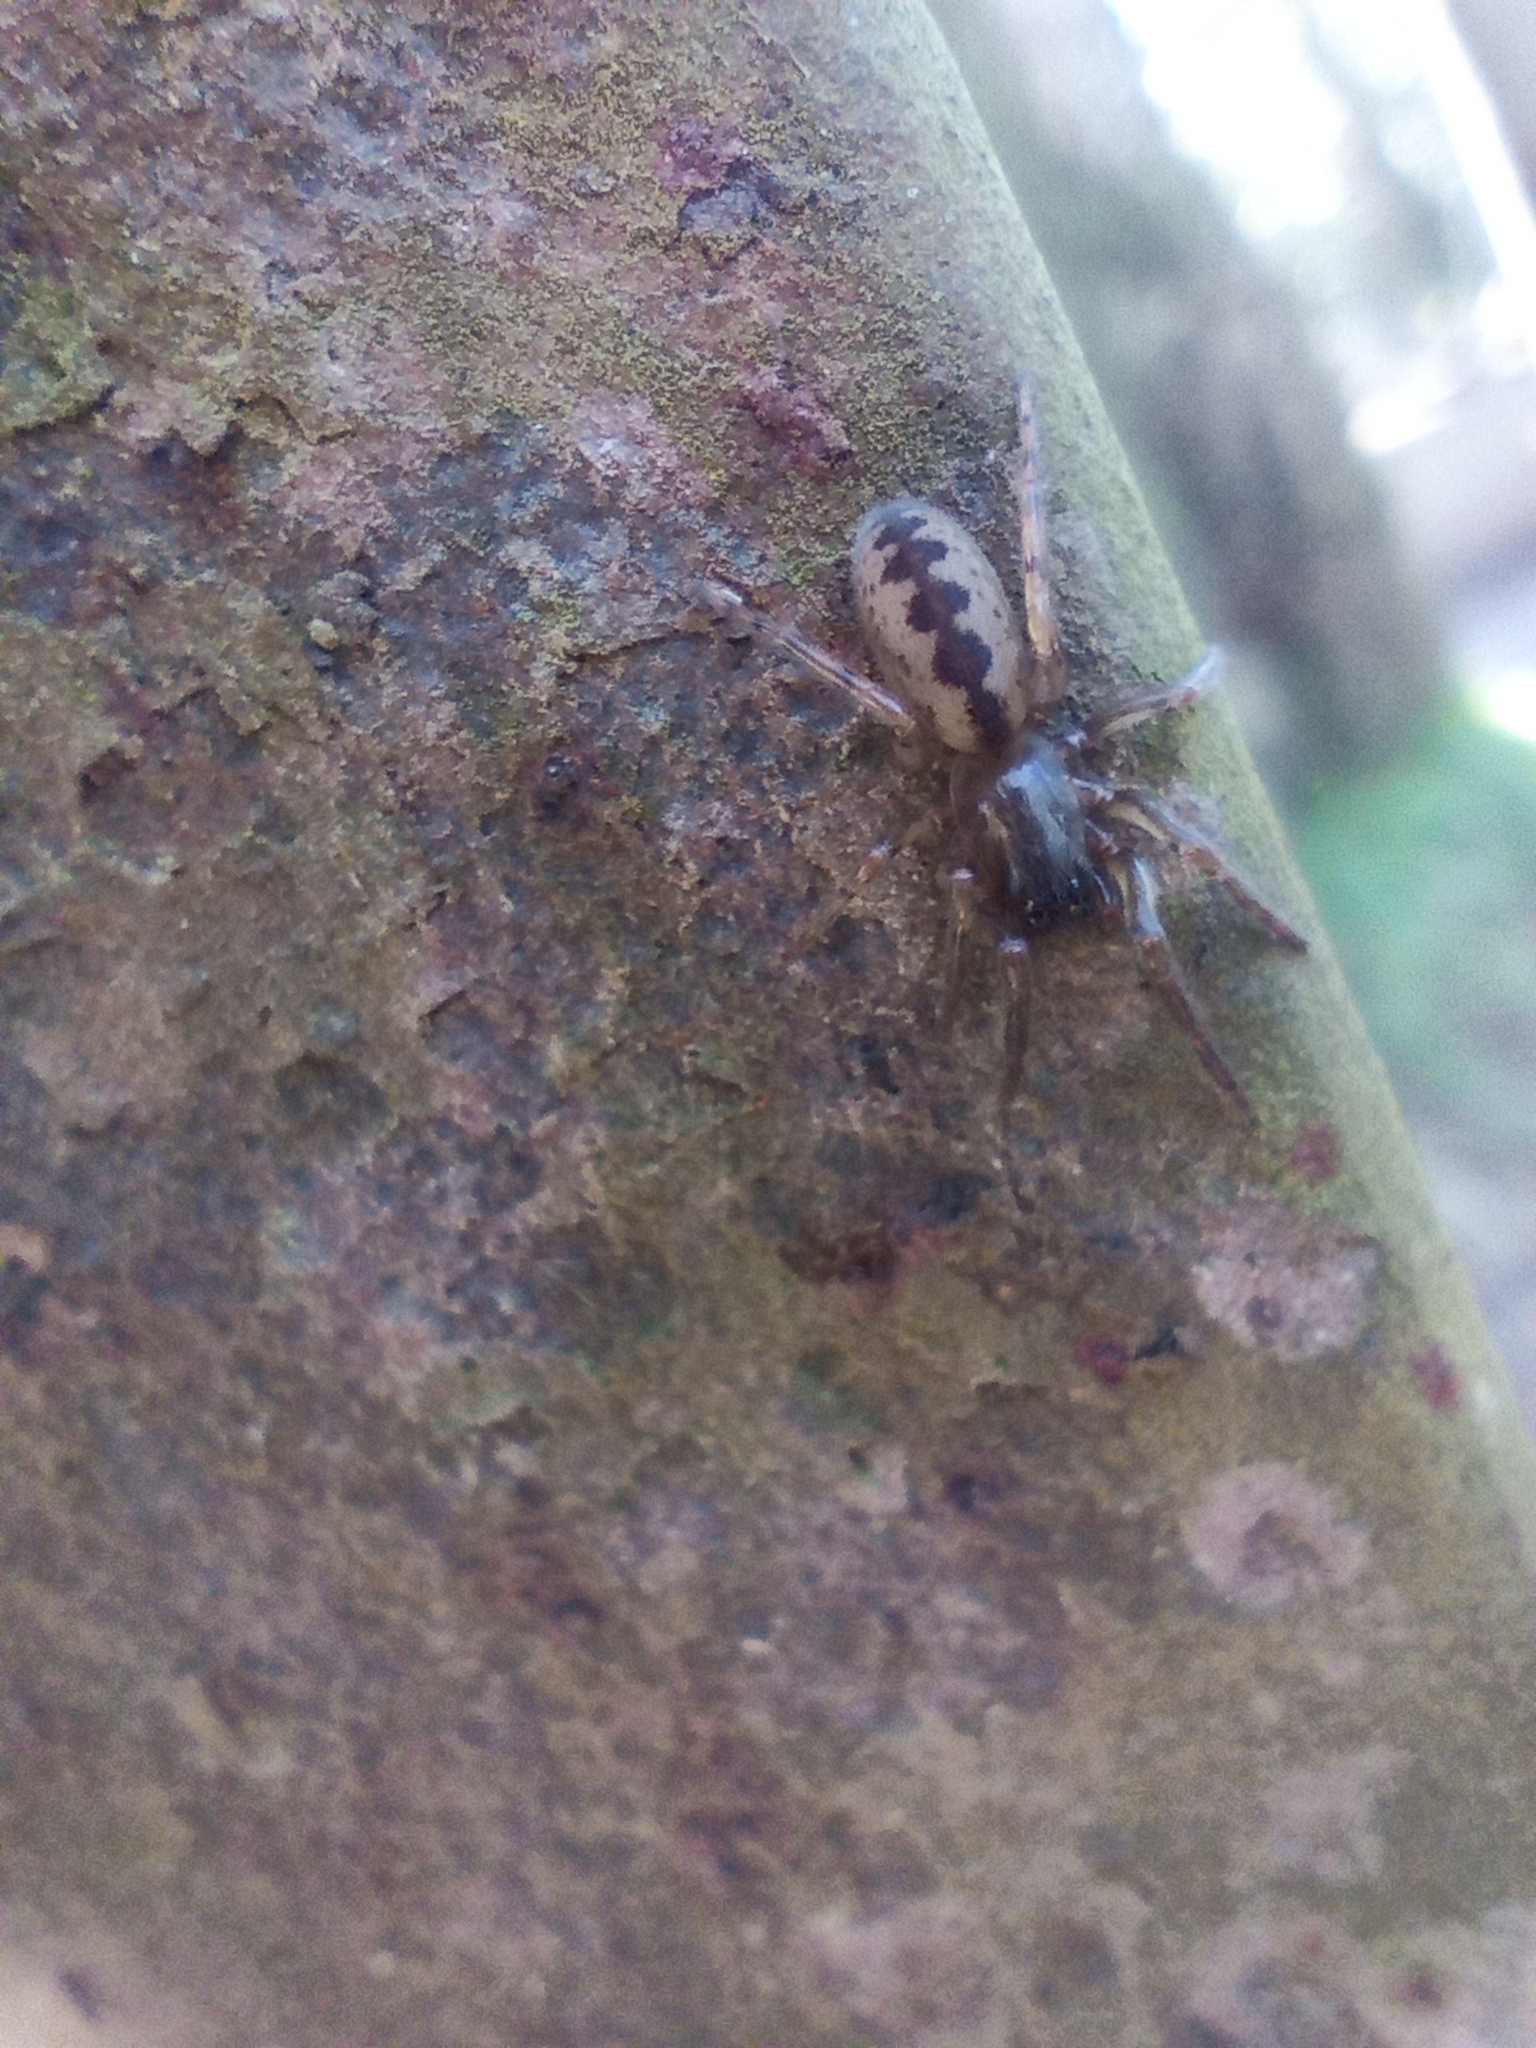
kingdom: Animalia
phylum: Arthropoda
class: Arachnida
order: Araneae
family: Segestriidae
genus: Segestria
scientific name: Segestria senoculata
